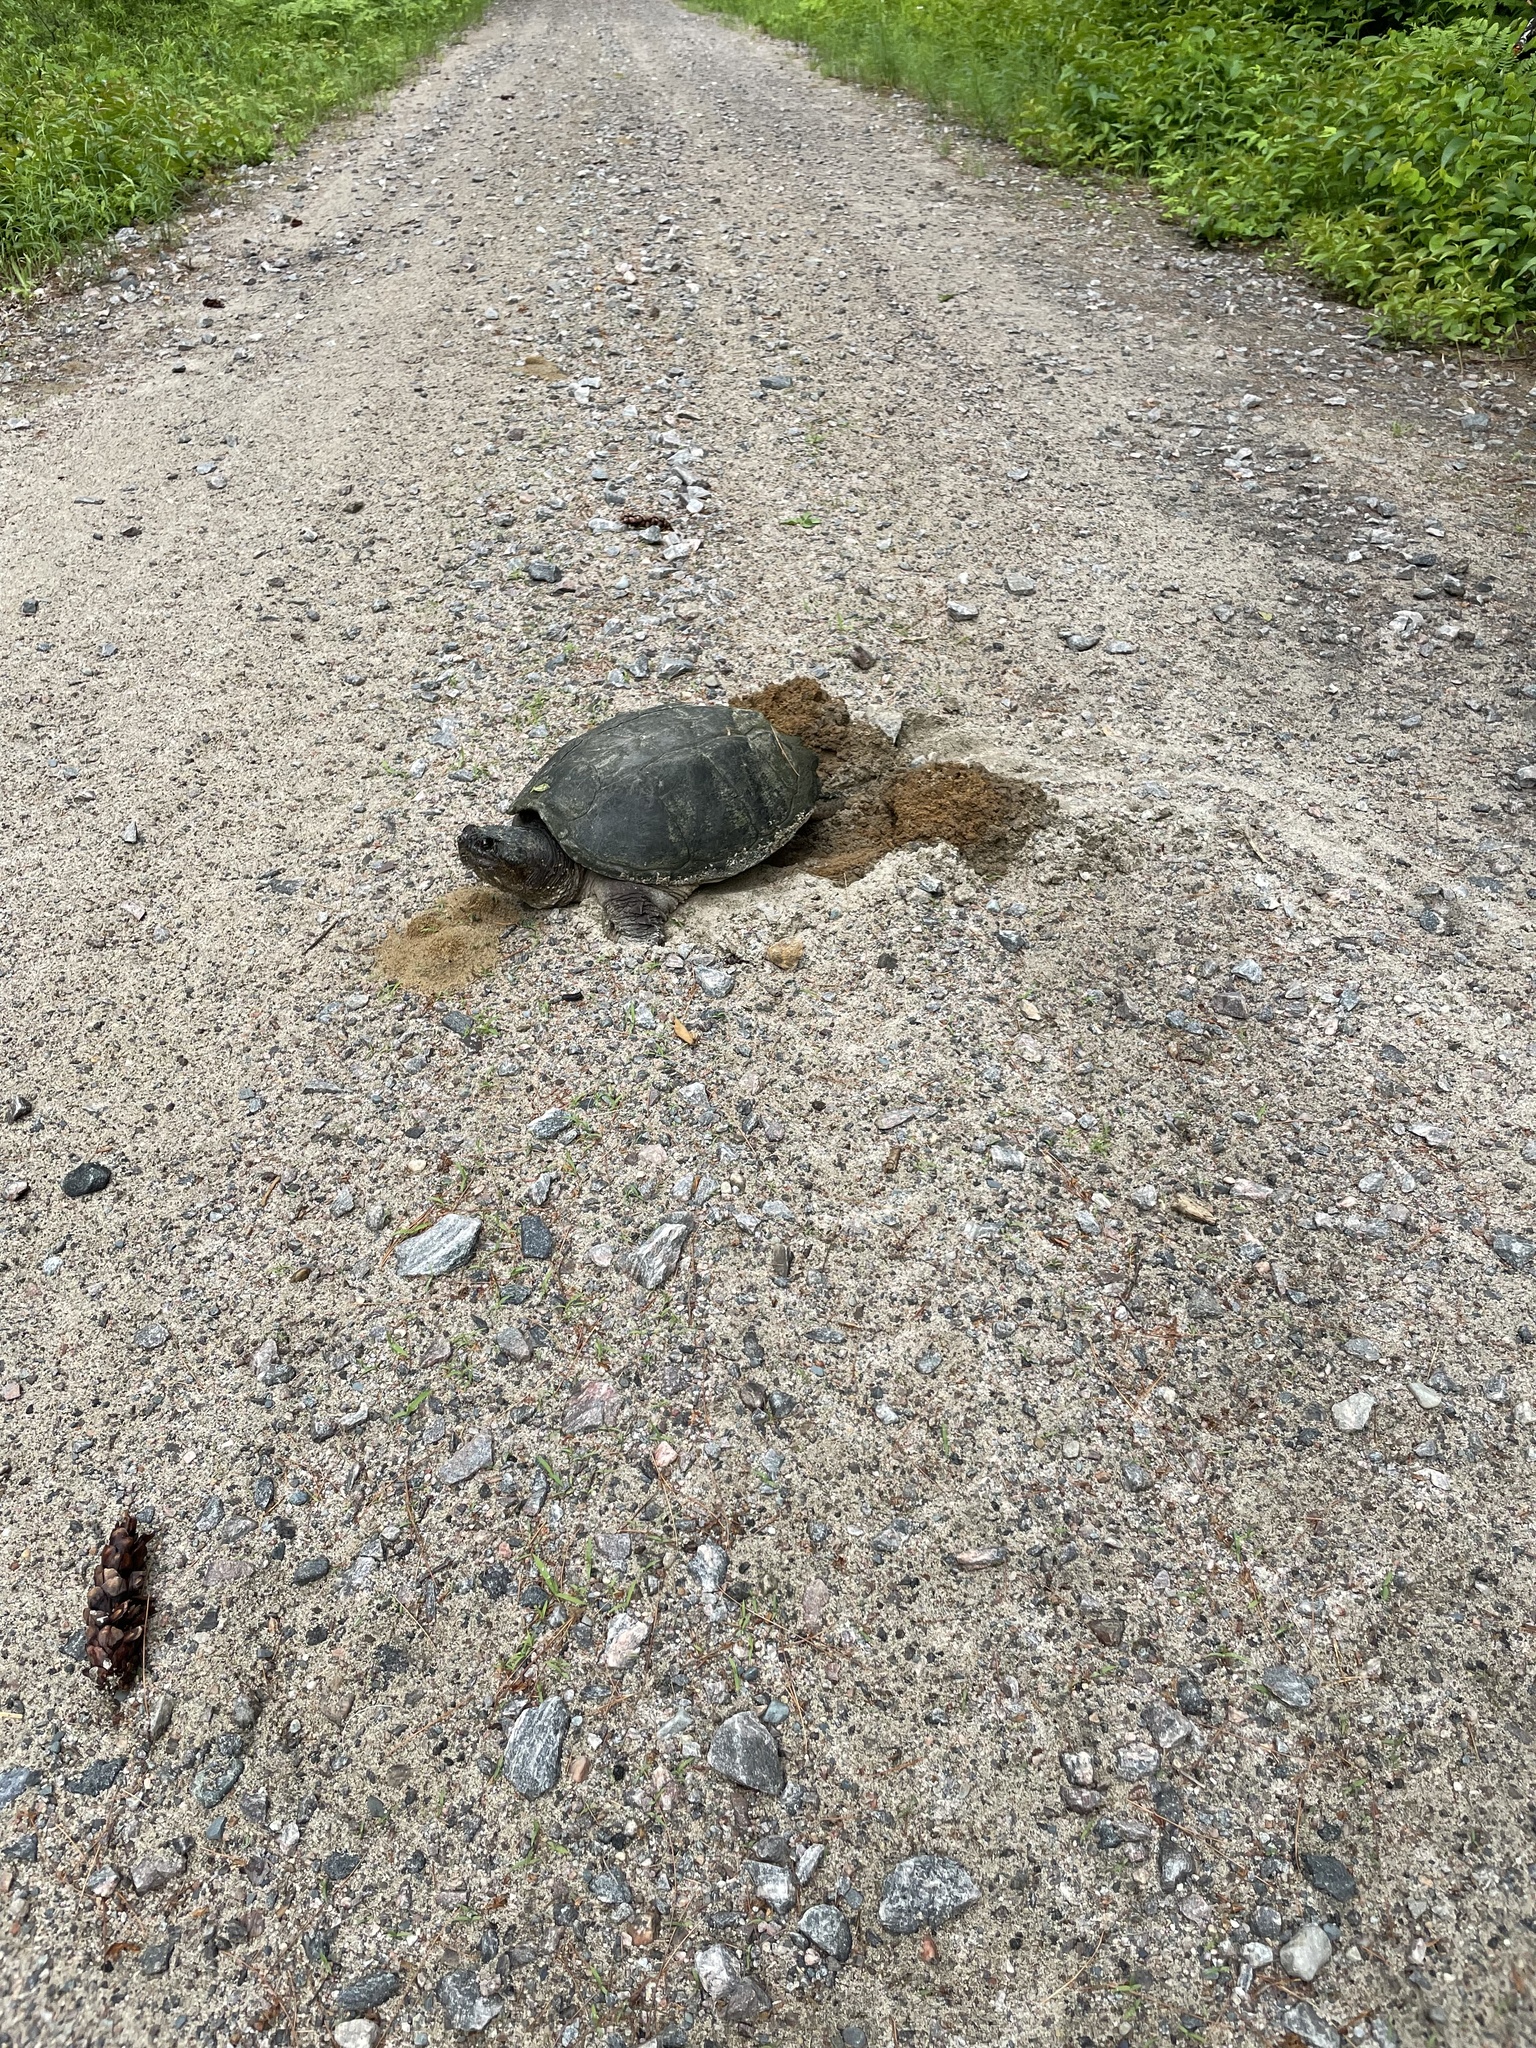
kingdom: Animalia
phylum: Chordata
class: Testudines
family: Chelydridae
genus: Chelydra
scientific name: Chelydra serpentina
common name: Common snapping turtle
